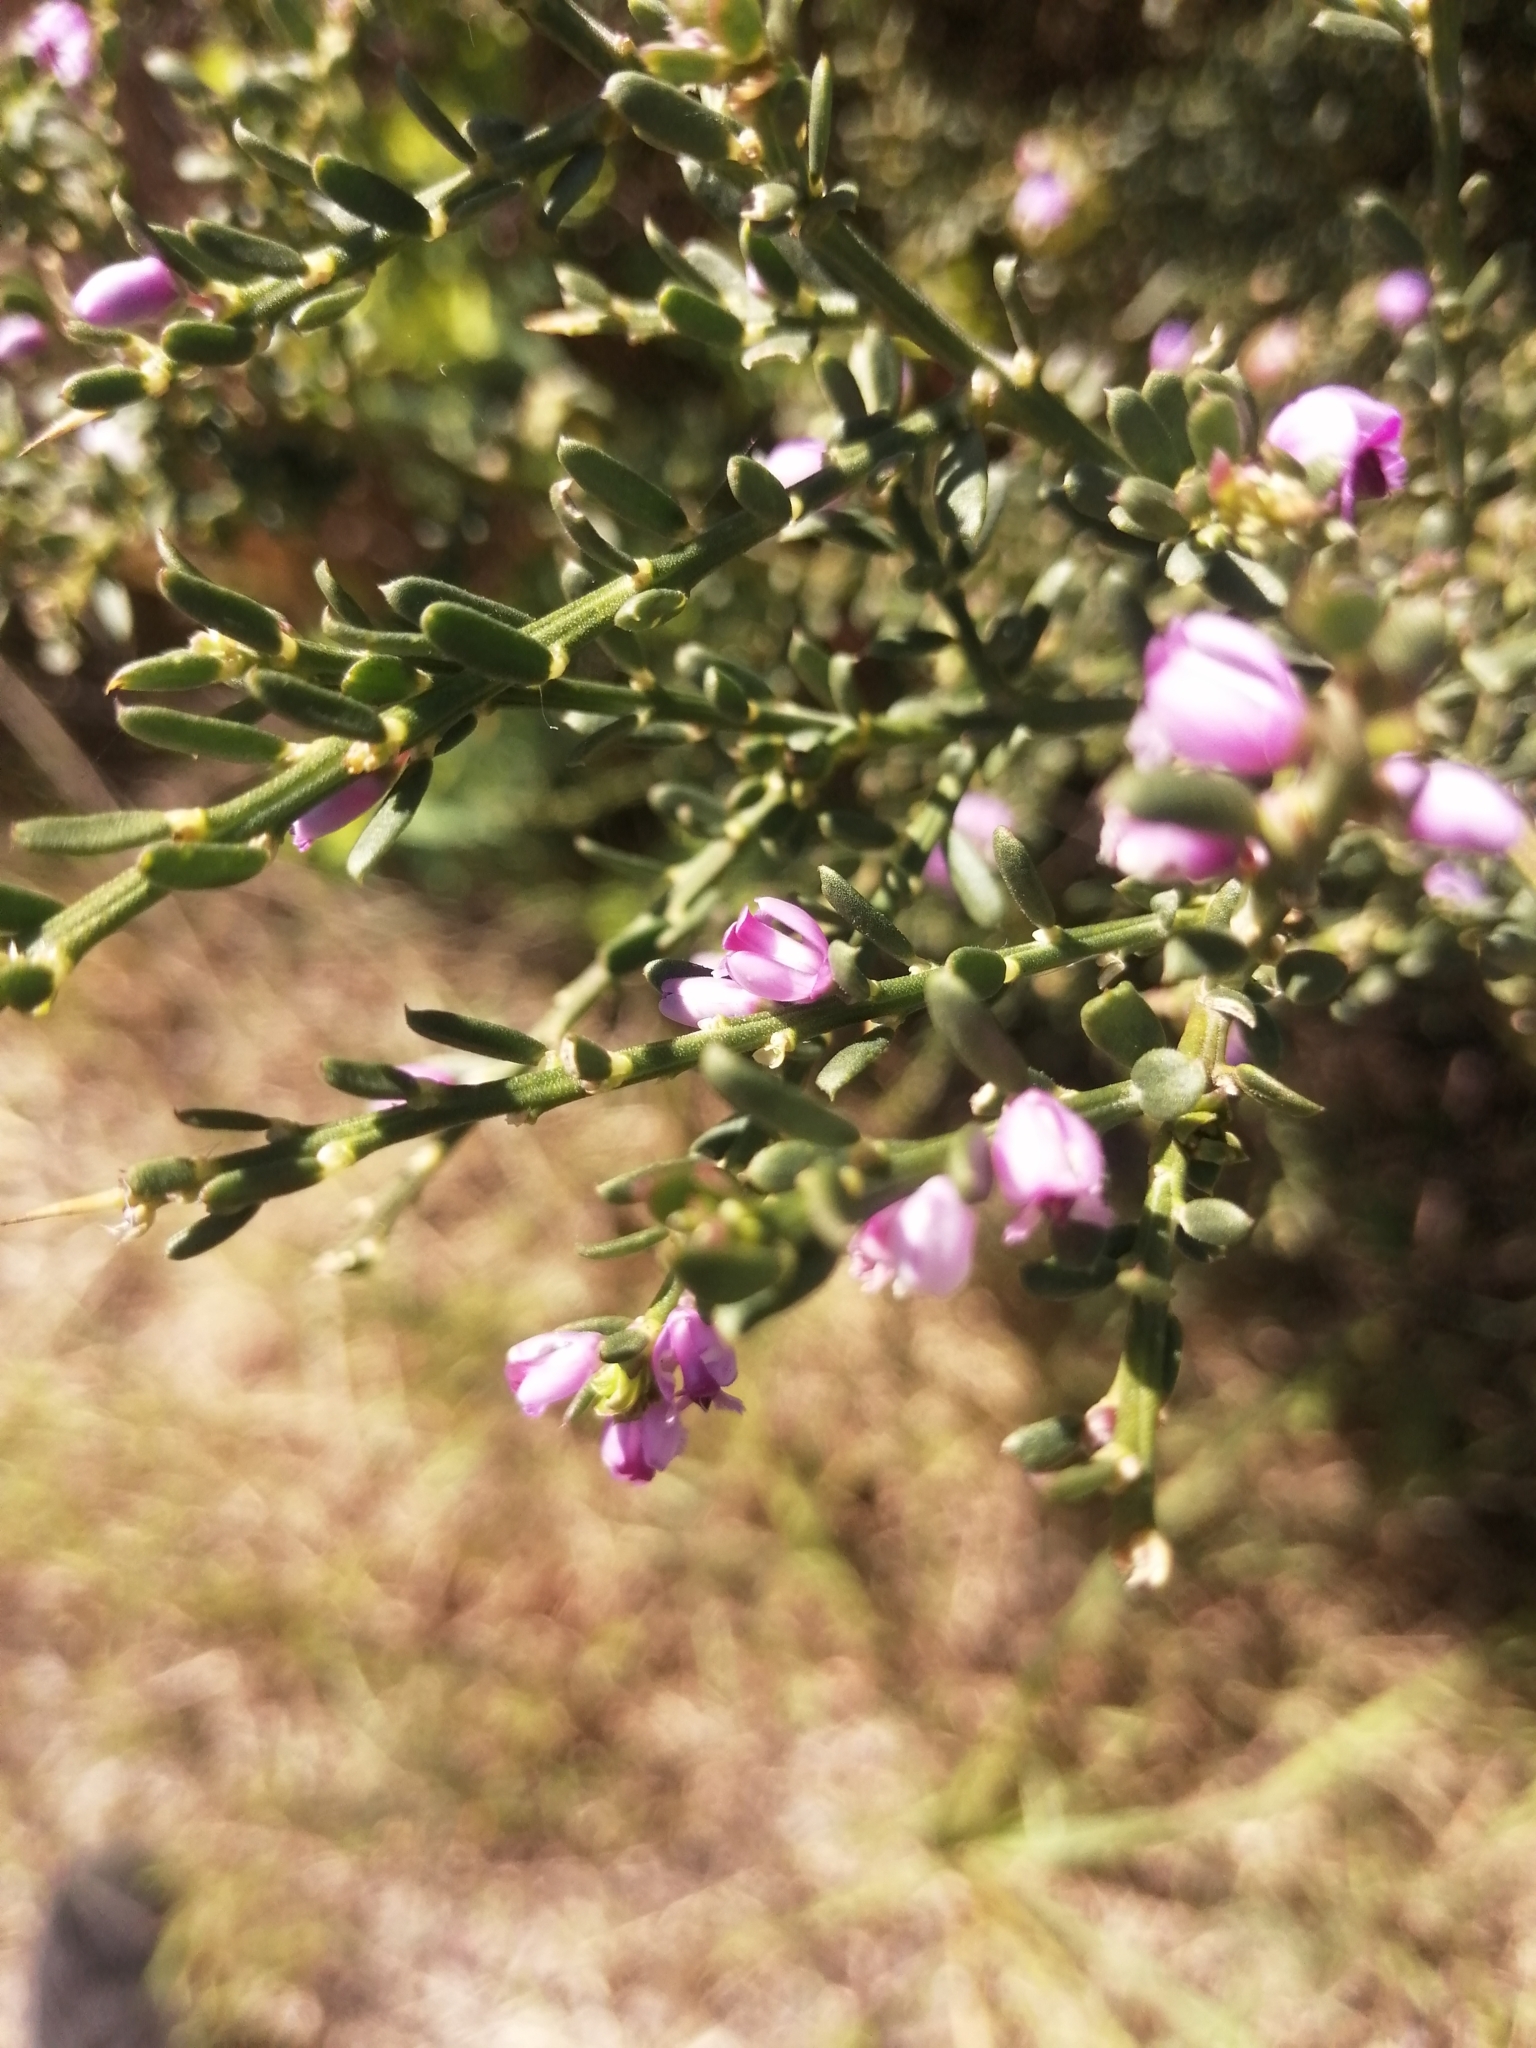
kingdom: Plantae
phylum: Tracheophyta
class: Magnoliopsida
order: Fabales
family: Polygalaceae
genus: Muraltia
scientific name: Muraltia spinosa
